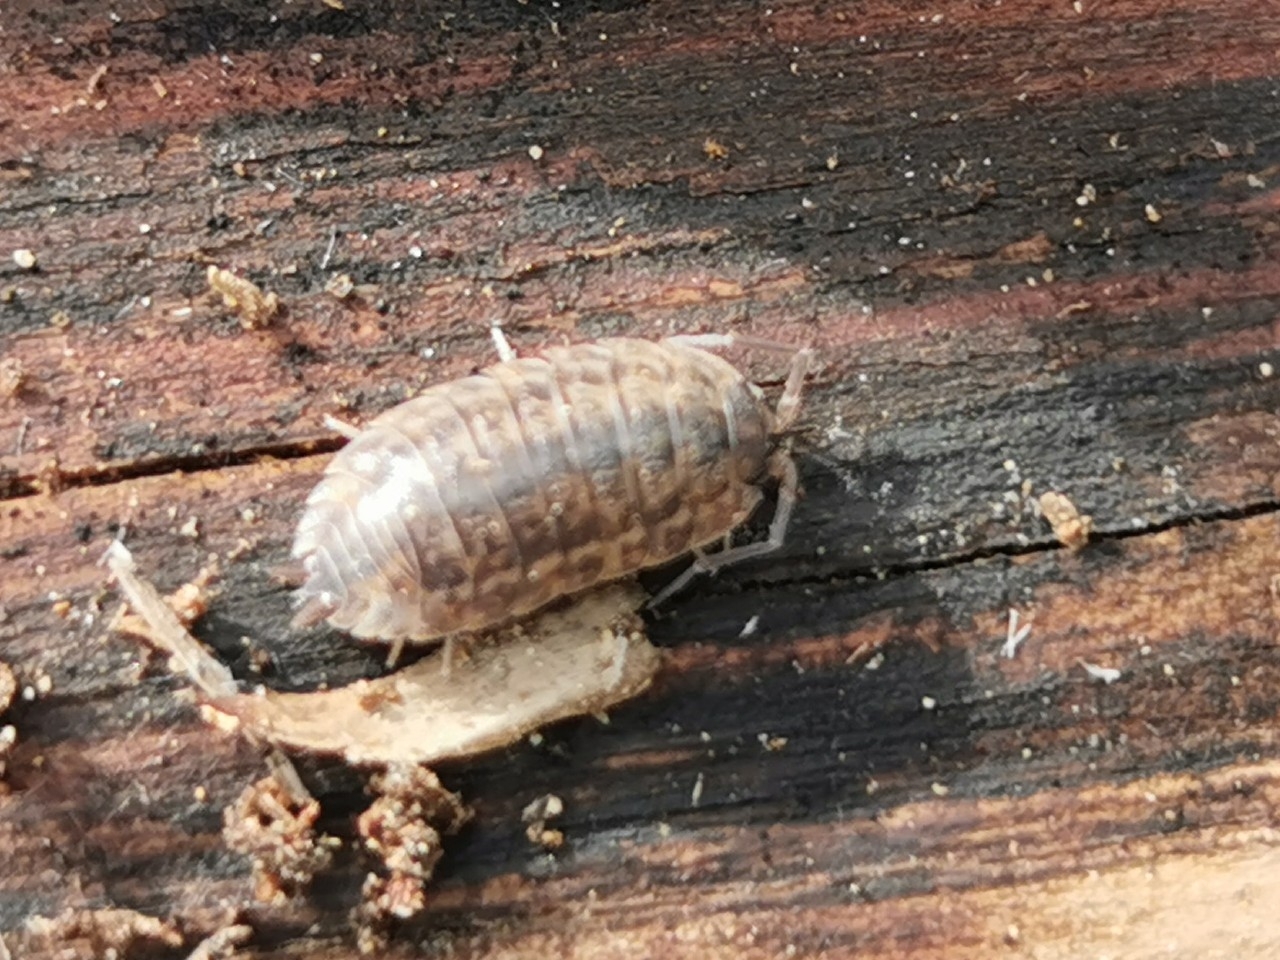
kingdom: Animalia
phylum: Arthropoda
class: Malacostraca
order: Isopoda
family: Trachelipodidae
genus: Trachelipus
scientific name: Trachelipus rathkii
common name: Isopod
